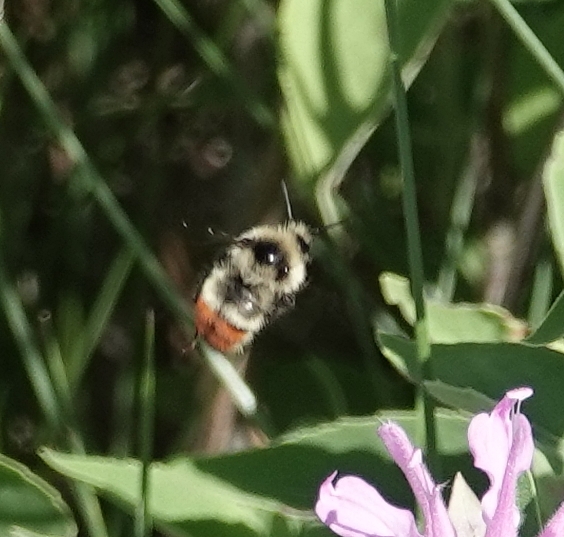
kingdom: Animalia
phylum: Arthropoda
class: Insecta
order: Hymenoptera
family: Apidae
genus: Bombus
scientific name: Bombus centralis
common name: Central bumble bee
